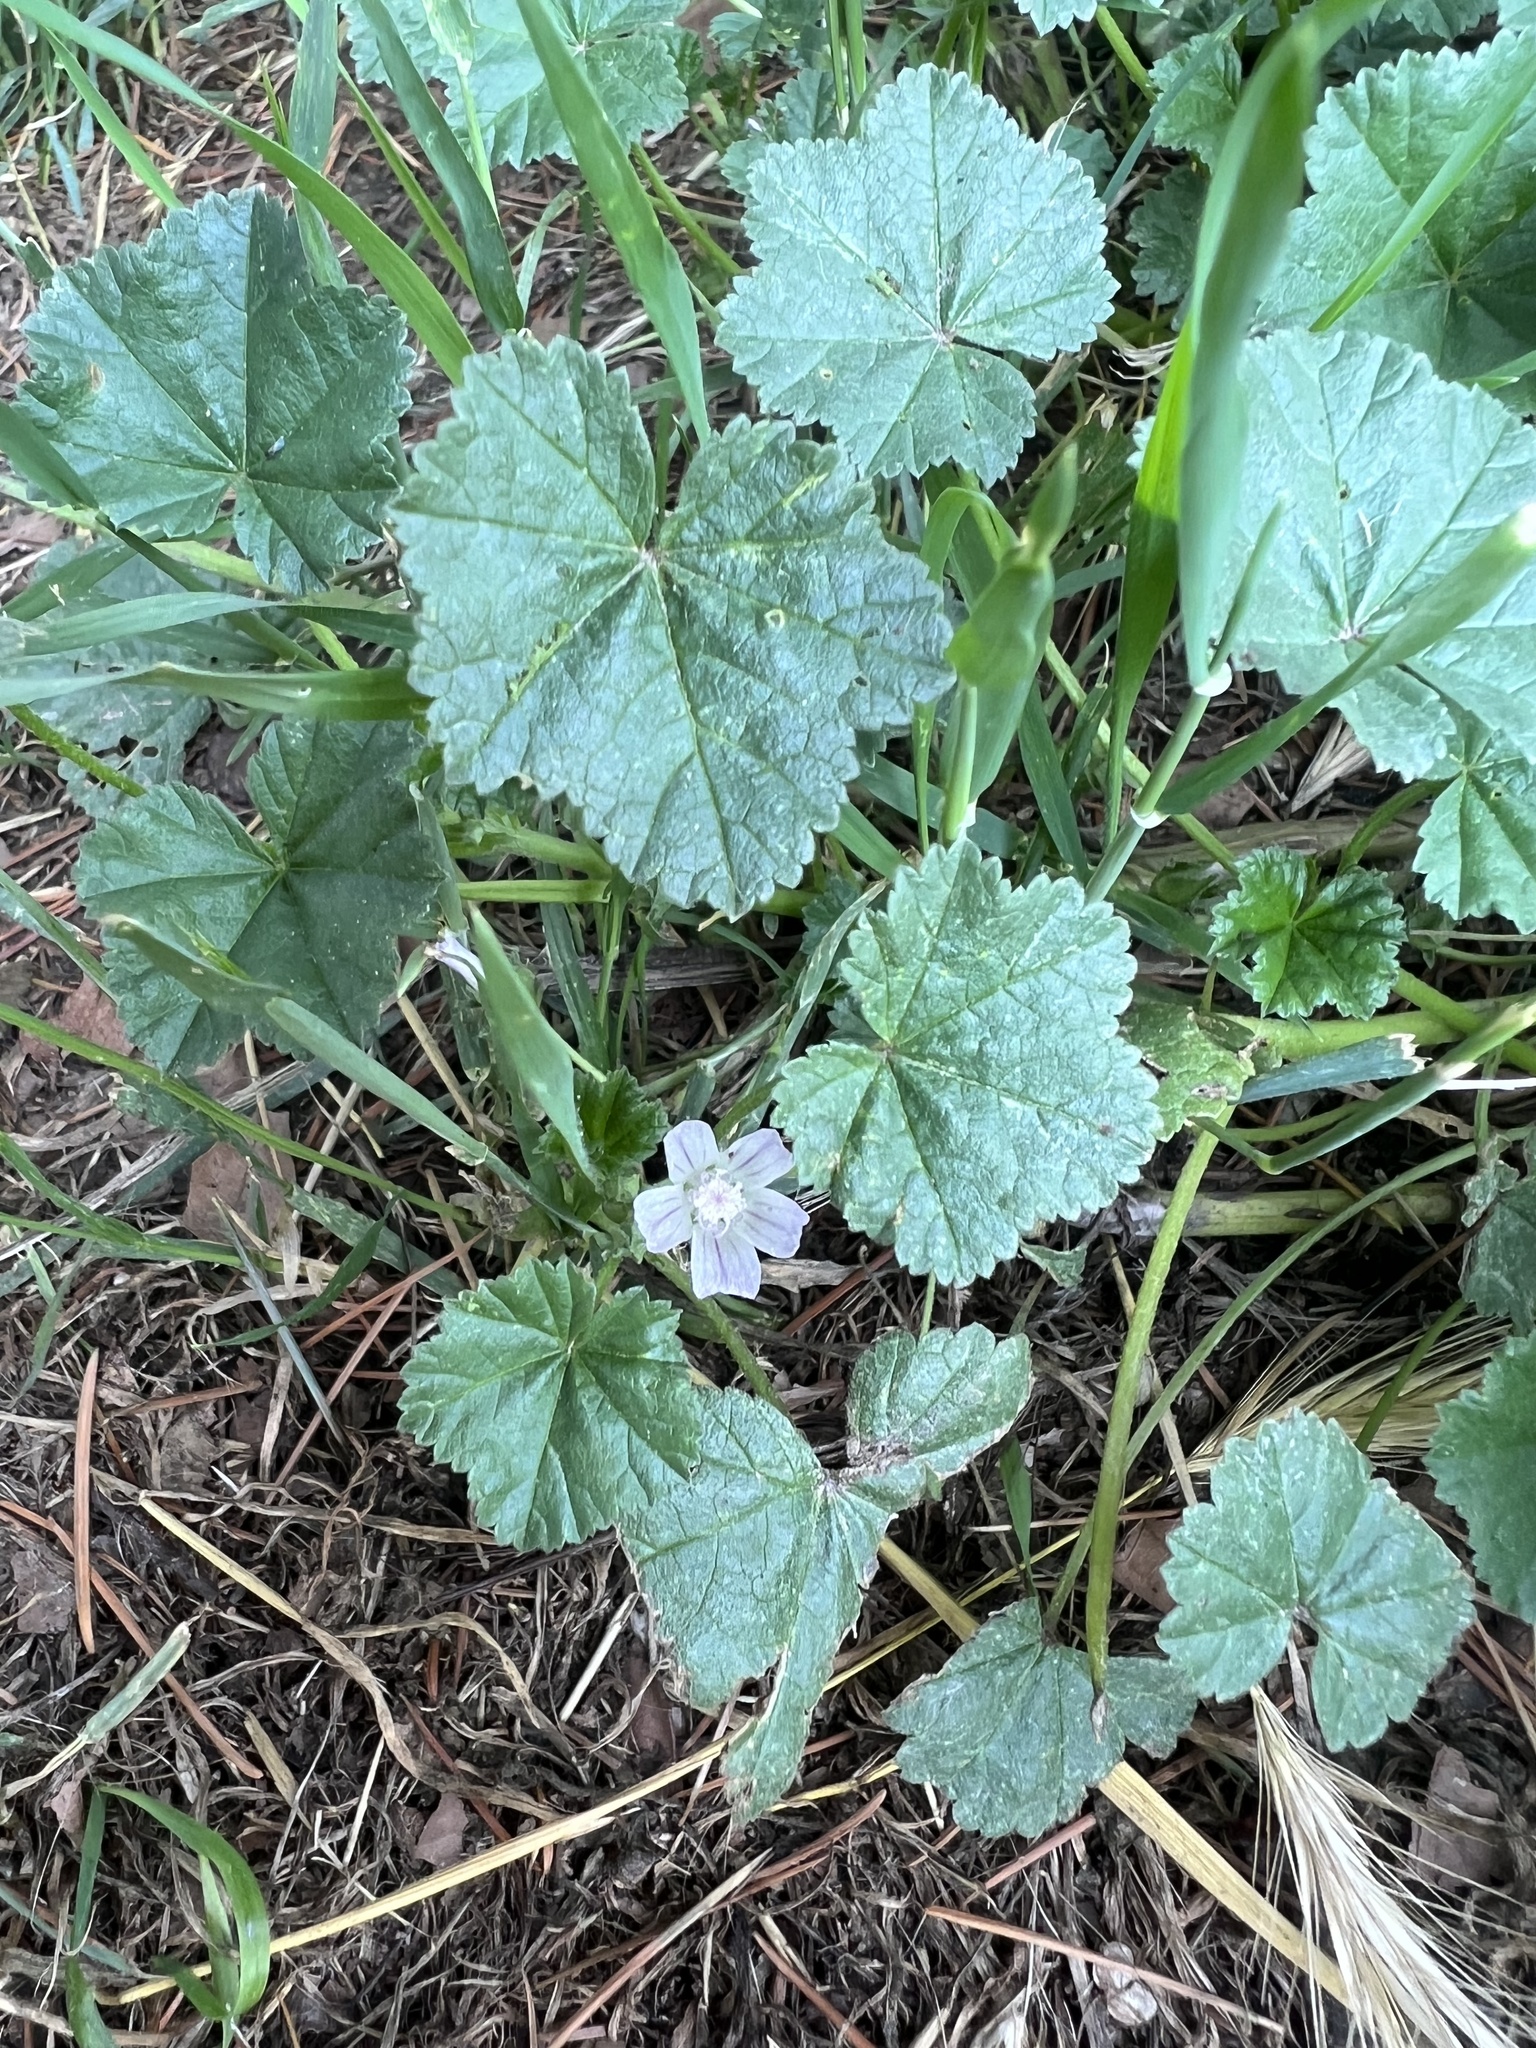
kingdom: Plantae
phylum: Tracheophyta
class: Magnoliopsida
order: Malvales
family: Malvaceae
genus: Malva
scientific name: Malva neglecta
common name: Common mallow
